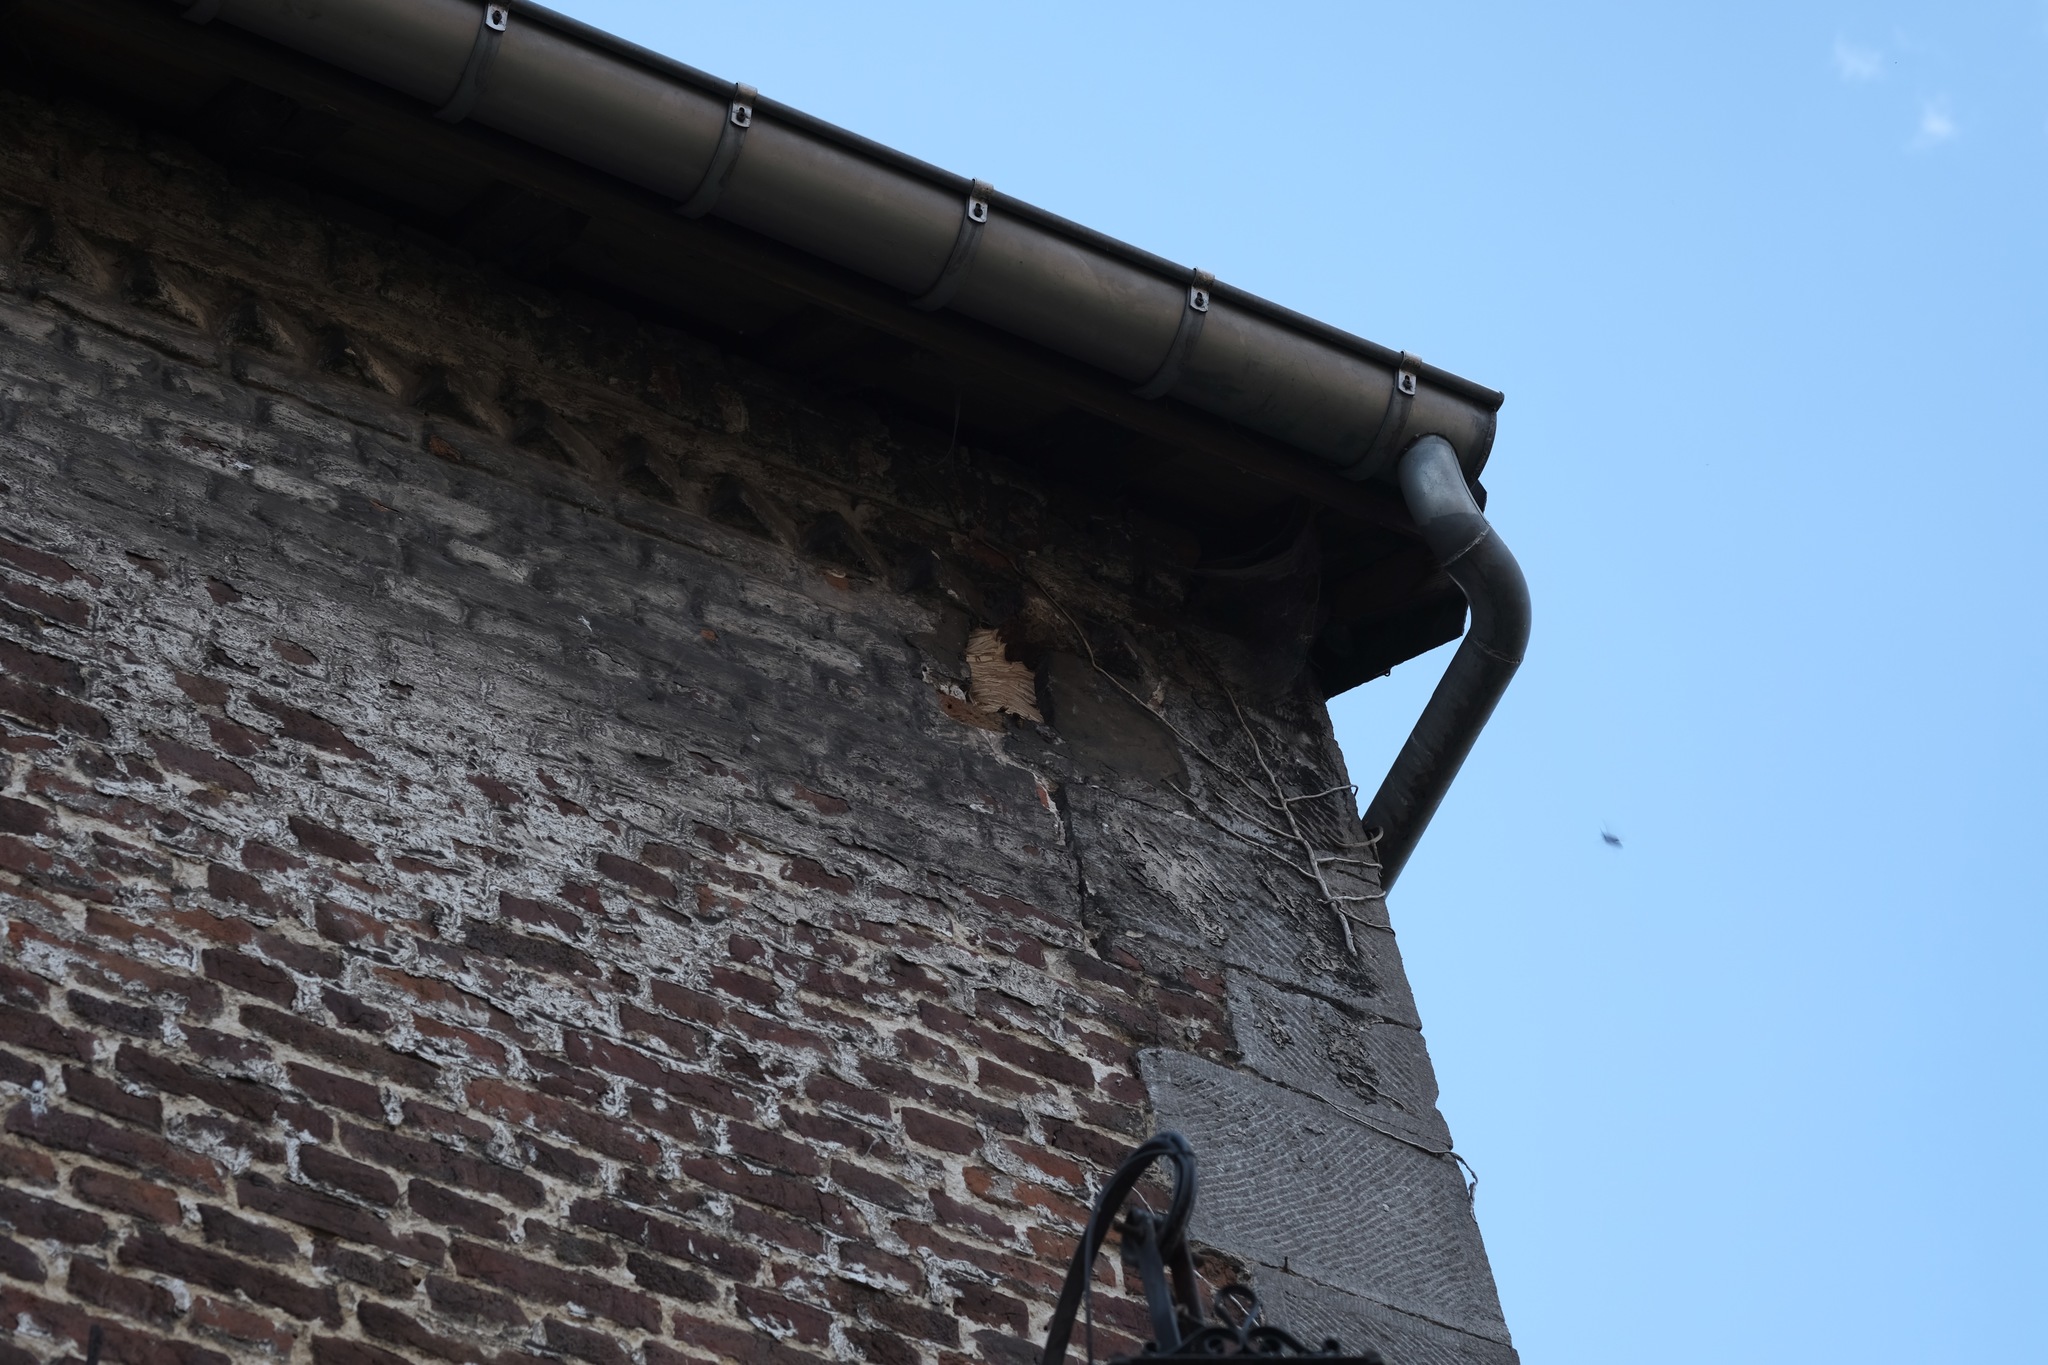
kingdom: Animalia
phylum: Arthropoda
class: Insecta
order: Hymenoptera
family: Vespidae
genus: Vespa
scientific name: Vespa crabro
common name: Hornet
